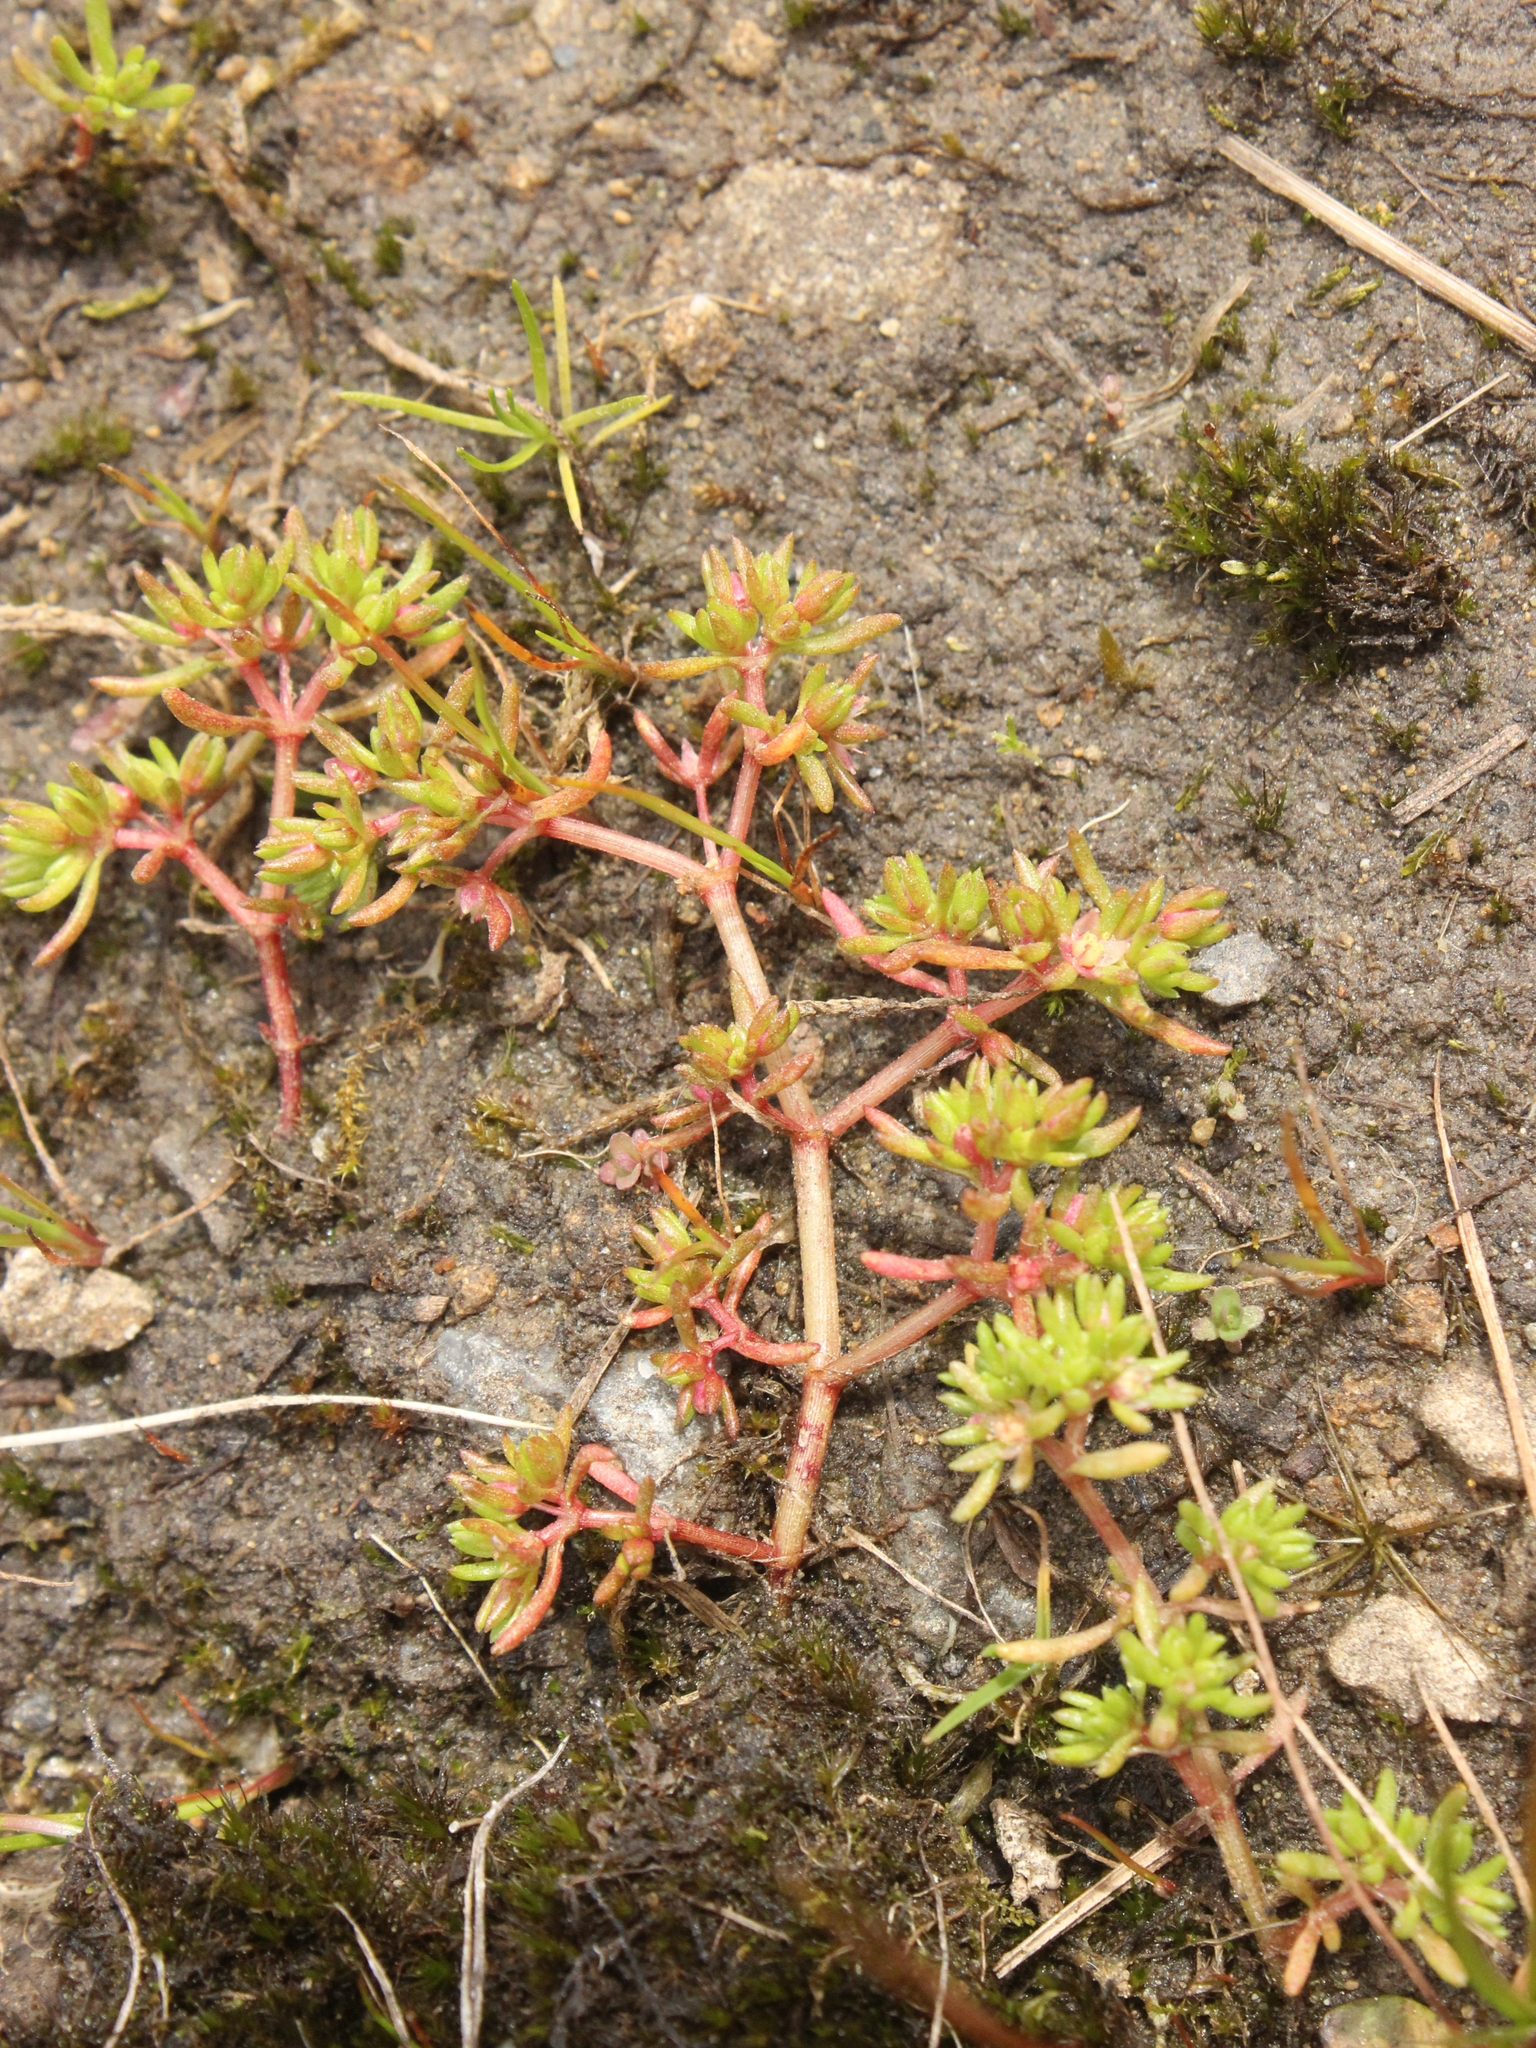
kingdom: Plantae
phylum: Tracheophyta
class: Magnoliopsida
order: Saxifragales
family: Crassulaceae
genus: Crassula
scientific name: Crassula decumbens
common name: Scilly pigmyweed
